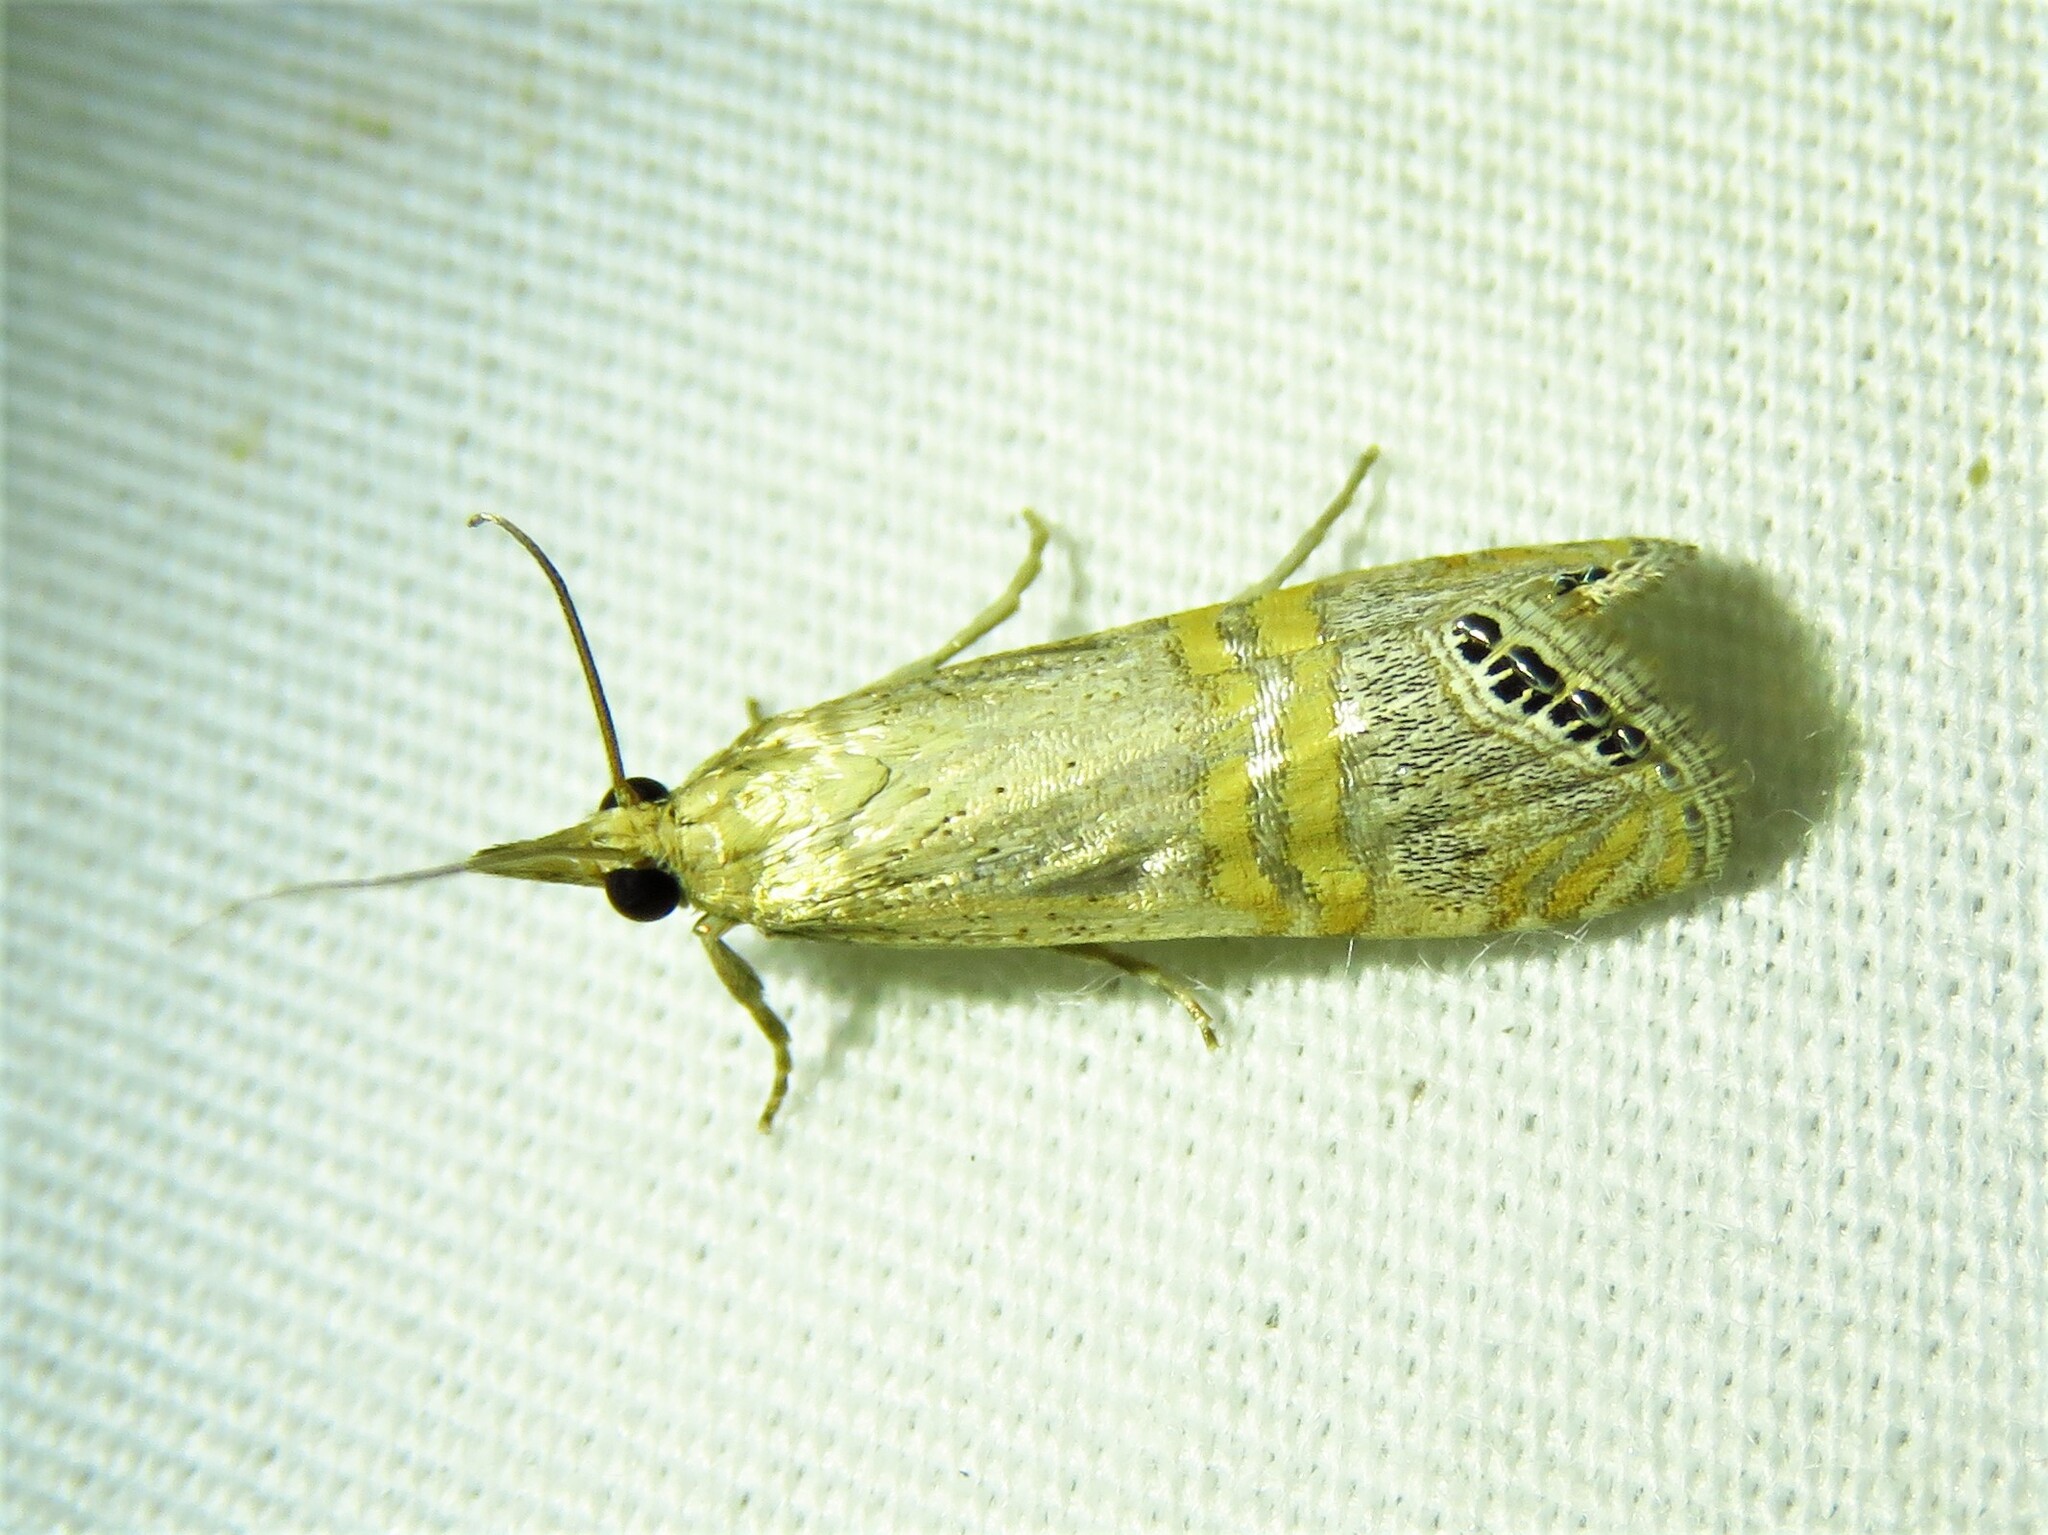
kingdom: Animalia
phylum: Arthropoda
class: Insecta
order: Lepidoptera
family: Crambidae
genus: Euchromius
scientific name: Euchromius ocellea
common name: Necklace veneer moth
